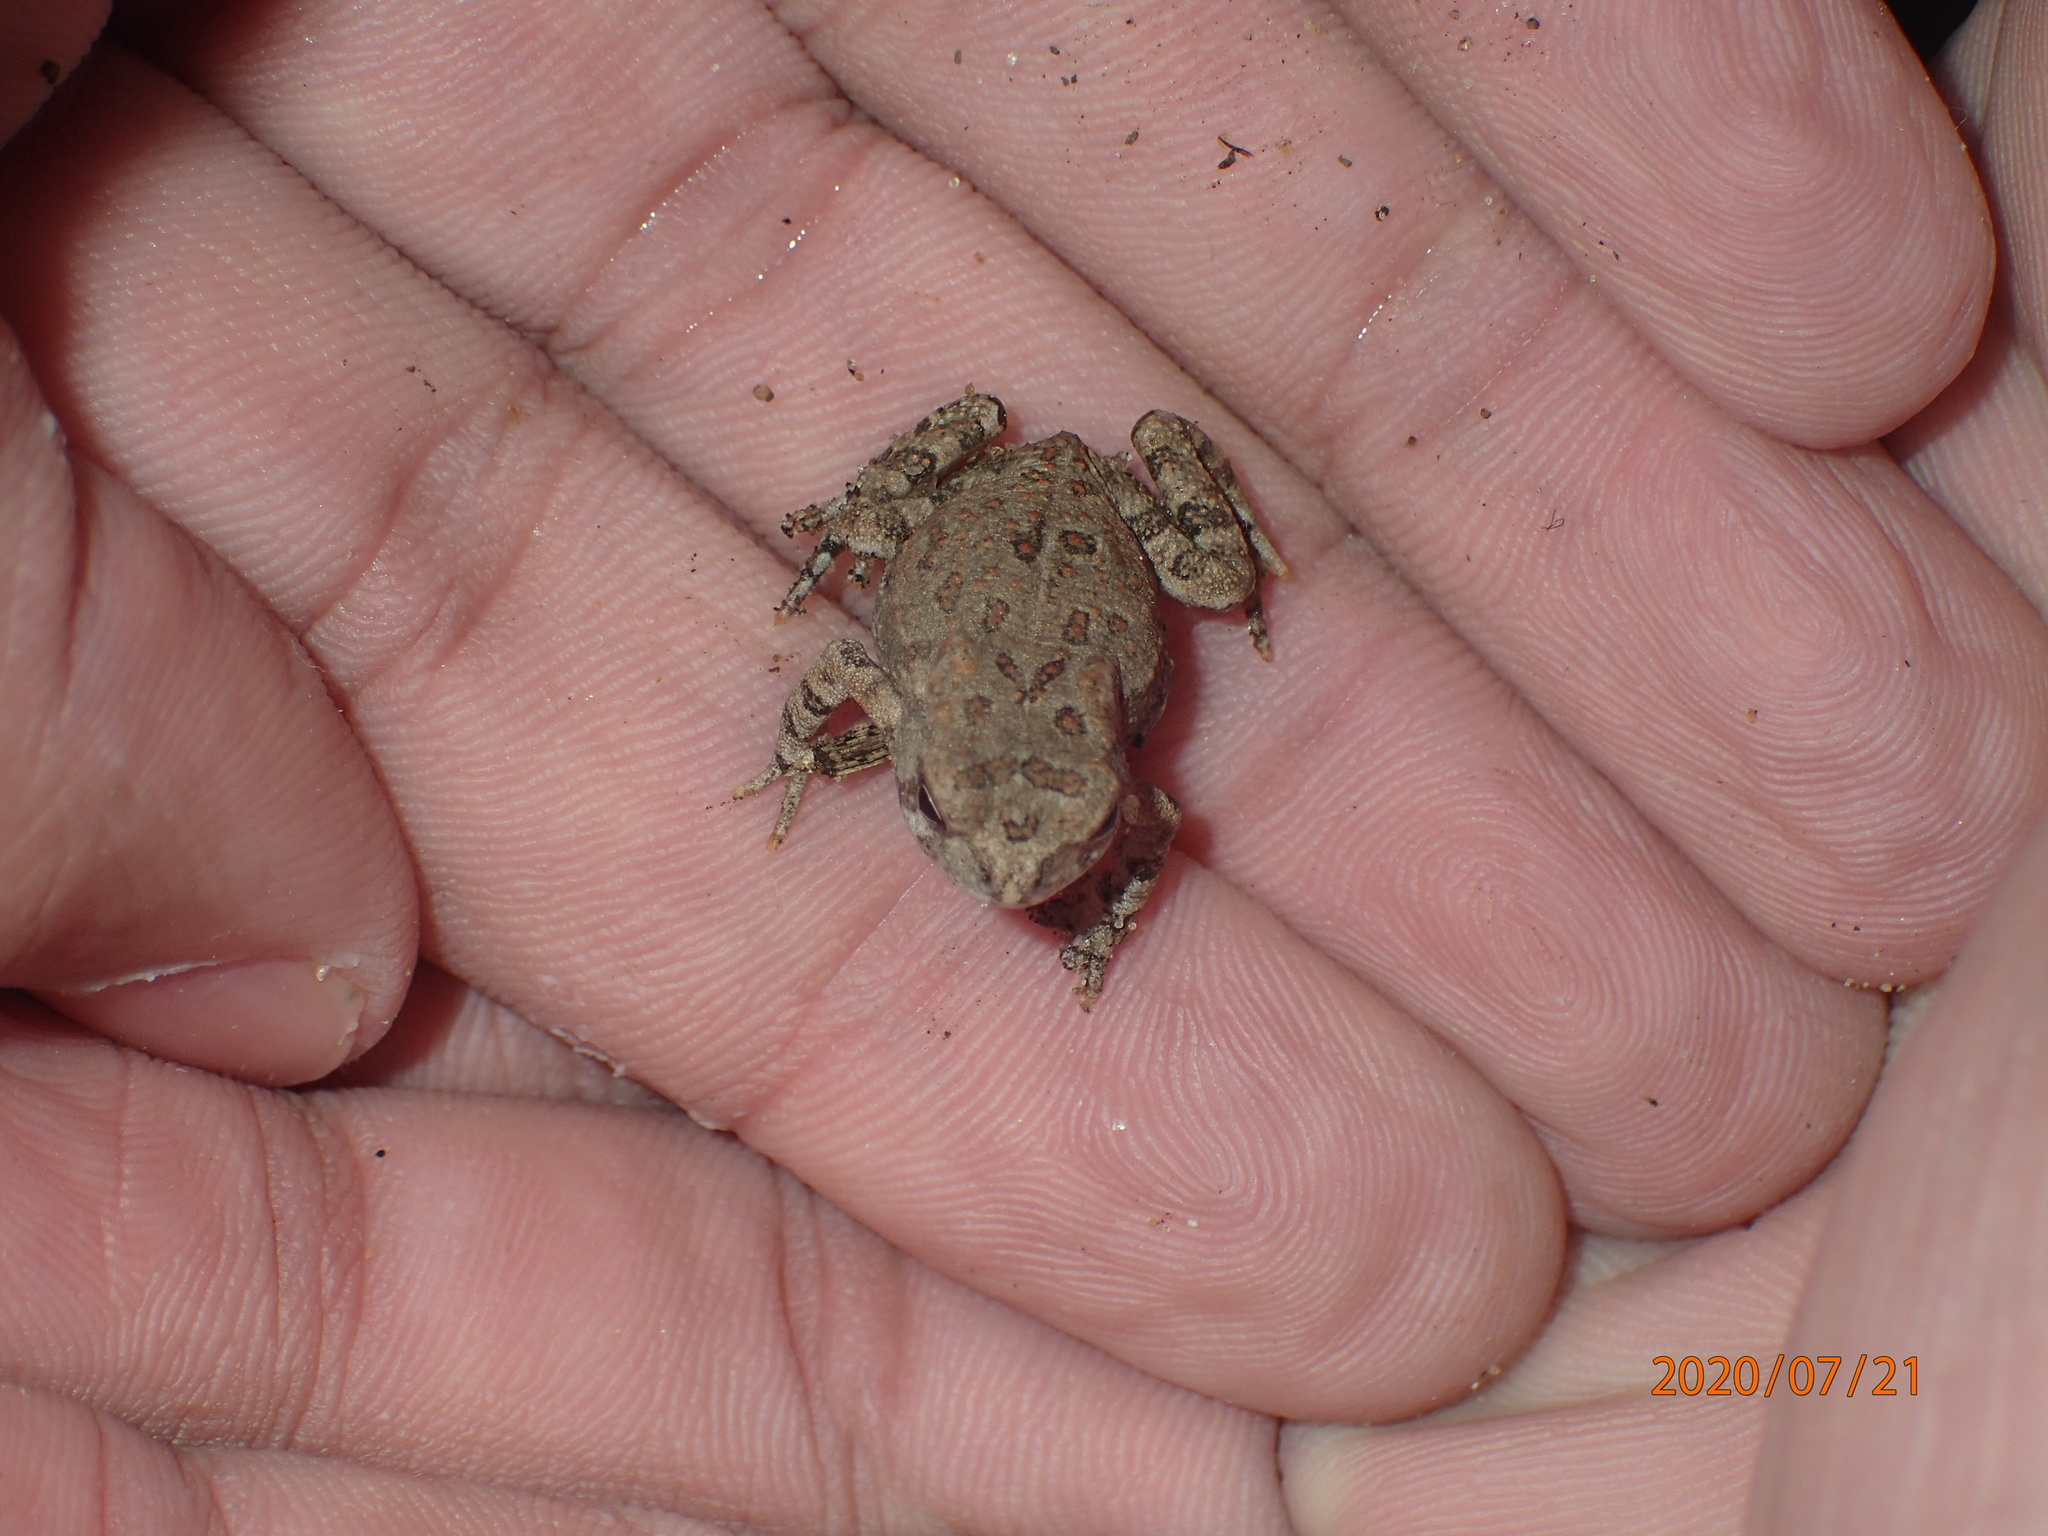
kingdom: Animalia
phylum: Chordata
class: Amphibia
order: Anura
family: Bufonidae
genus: Anaxyrus
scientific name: Anaxyrus fowleri
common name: Fowler's toad
